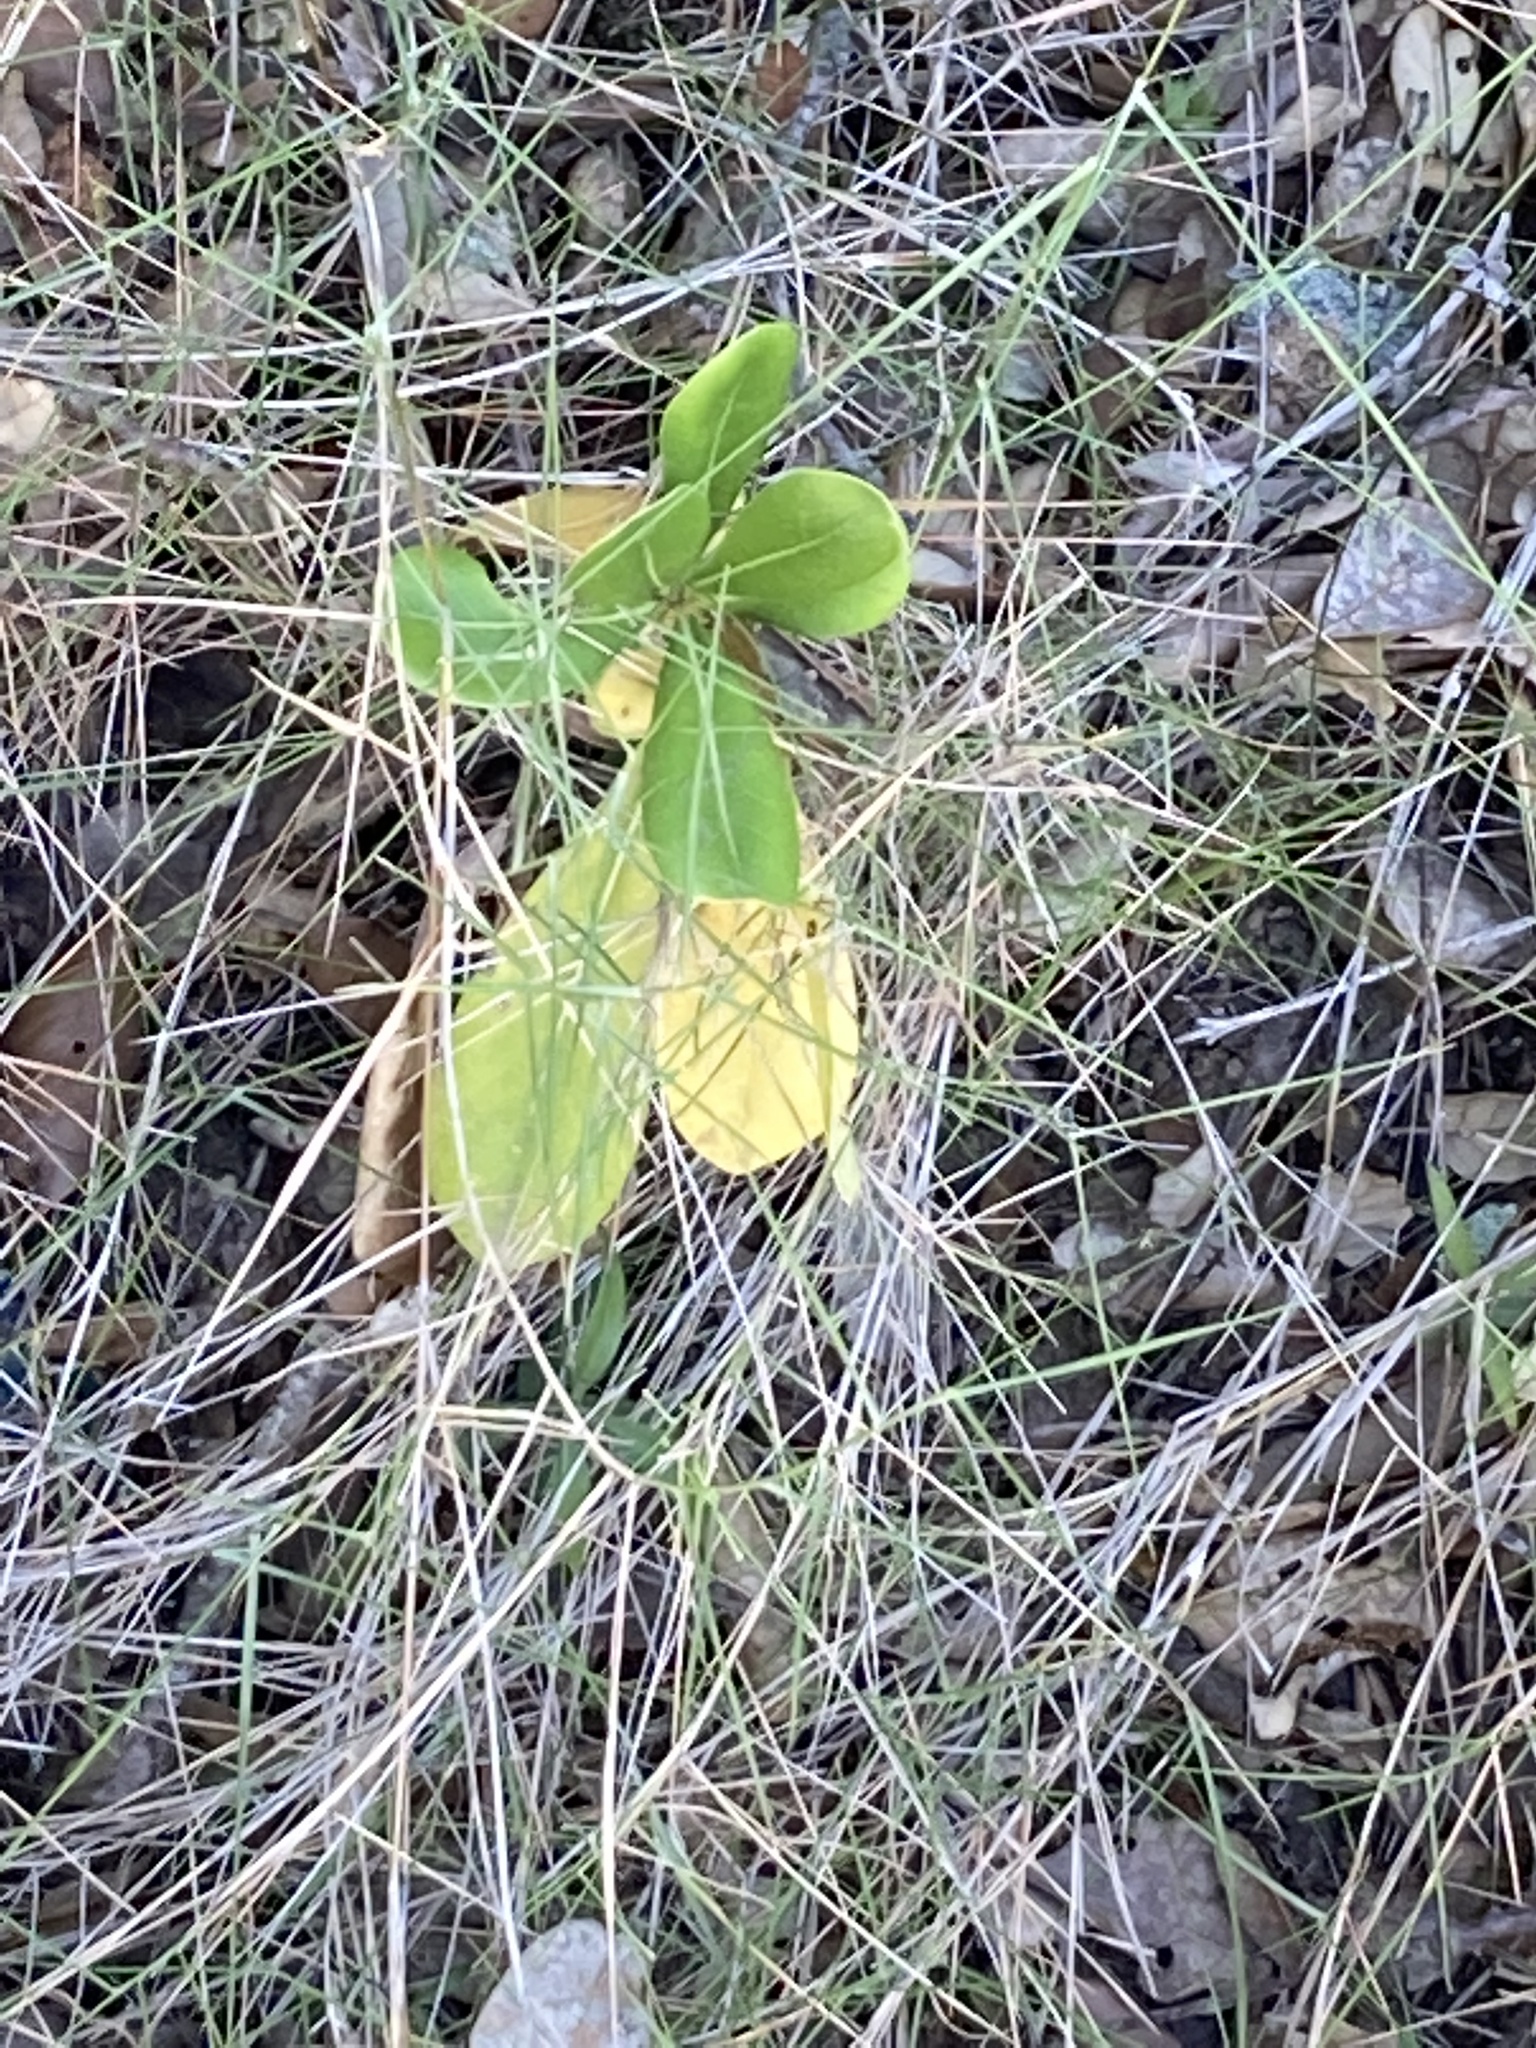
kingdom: Plantae
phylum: Tracheophyta
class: Magnoliopsida
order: Apiales
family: Pittosporaceae
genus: Pittosporum
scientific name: Pittosporum tobira
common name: Japanese cheesewood
